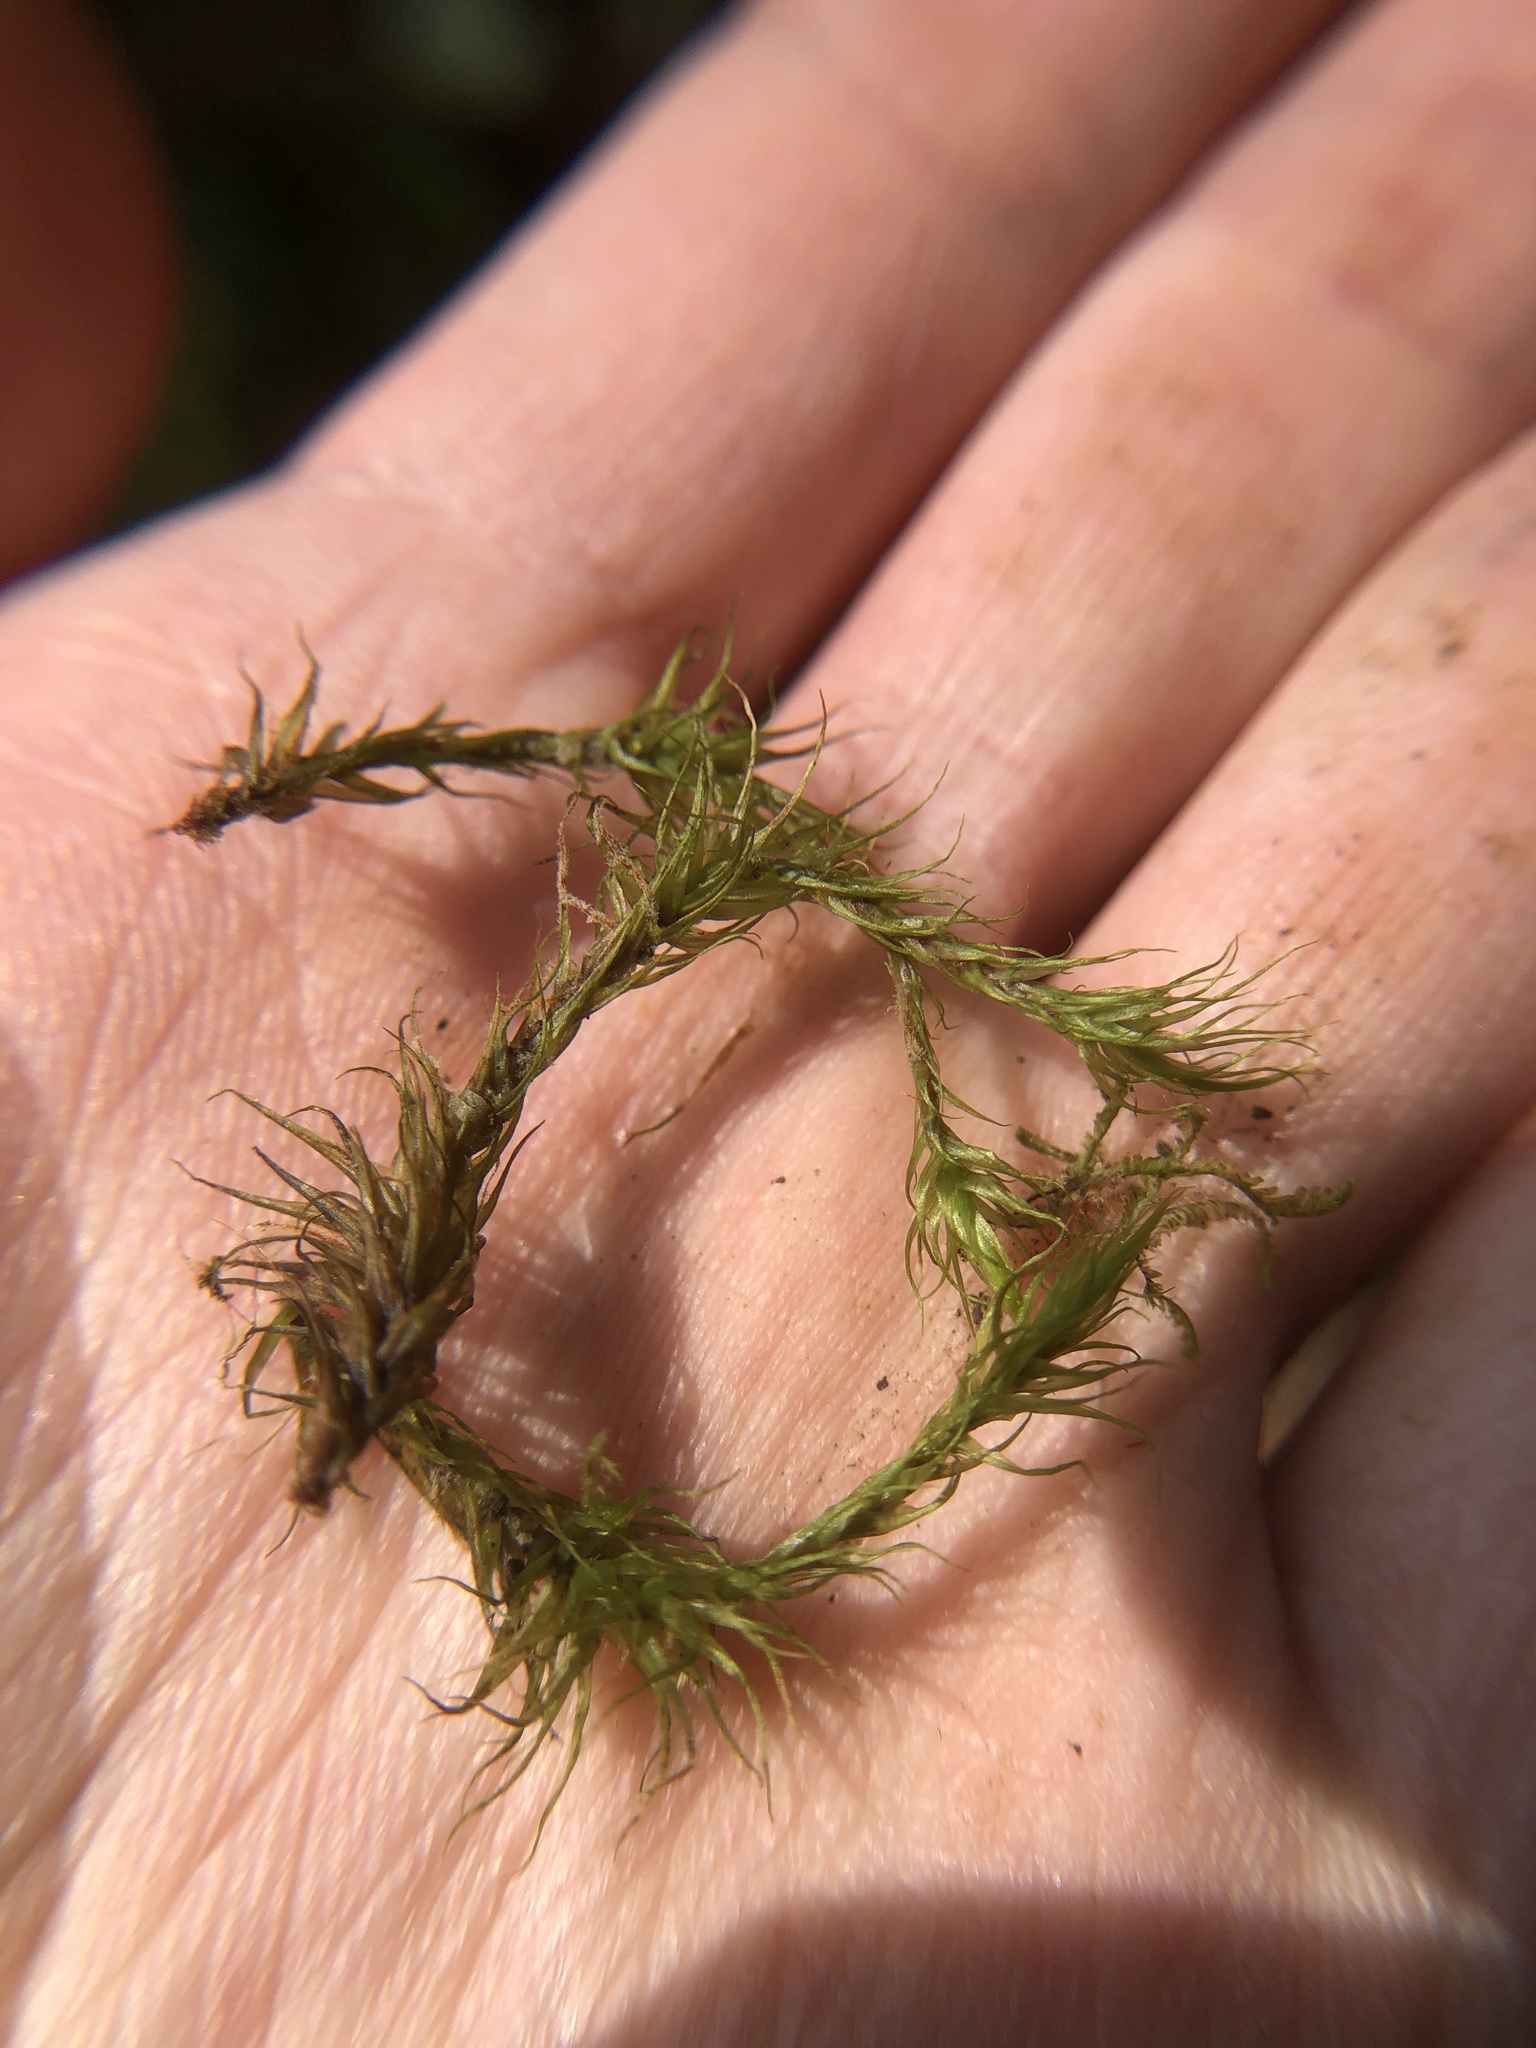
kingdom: Plantae
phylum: Bryophyta
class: Bryopsida
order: Dicranales
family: Dicranaceae
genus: Dicranum
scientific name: Dicranum majus
